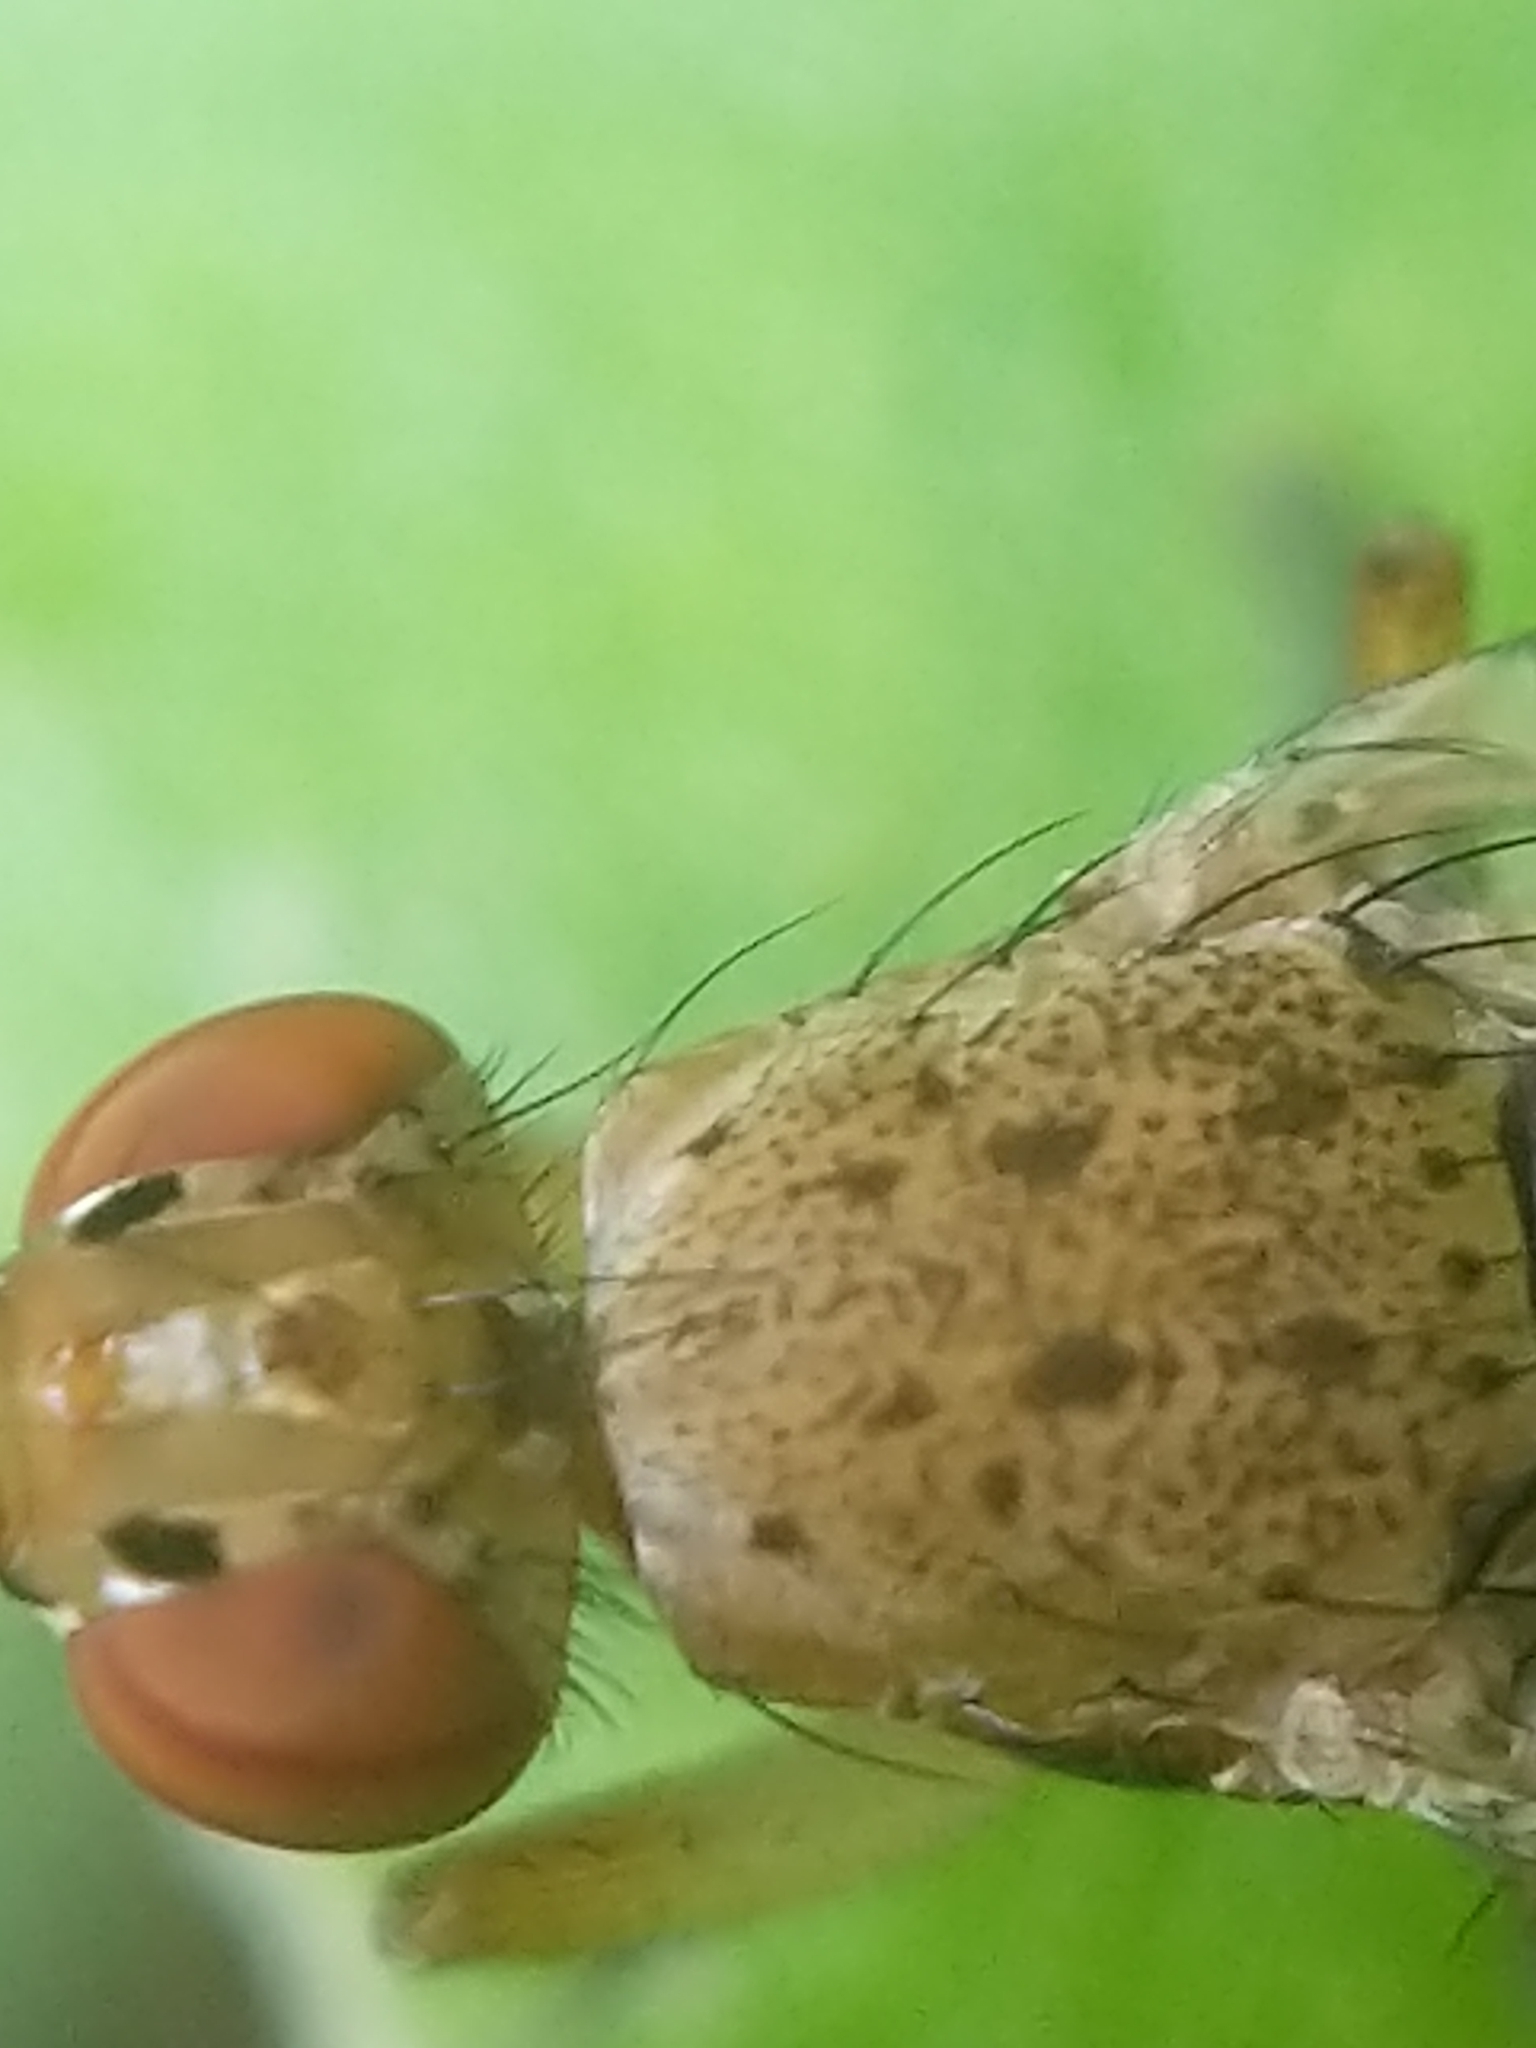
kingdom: Animalia
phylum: Arthropoda
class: Insecta
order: Diptera
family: Sciomyzidae
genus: Euthycera
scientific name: Euthycera flavescens
